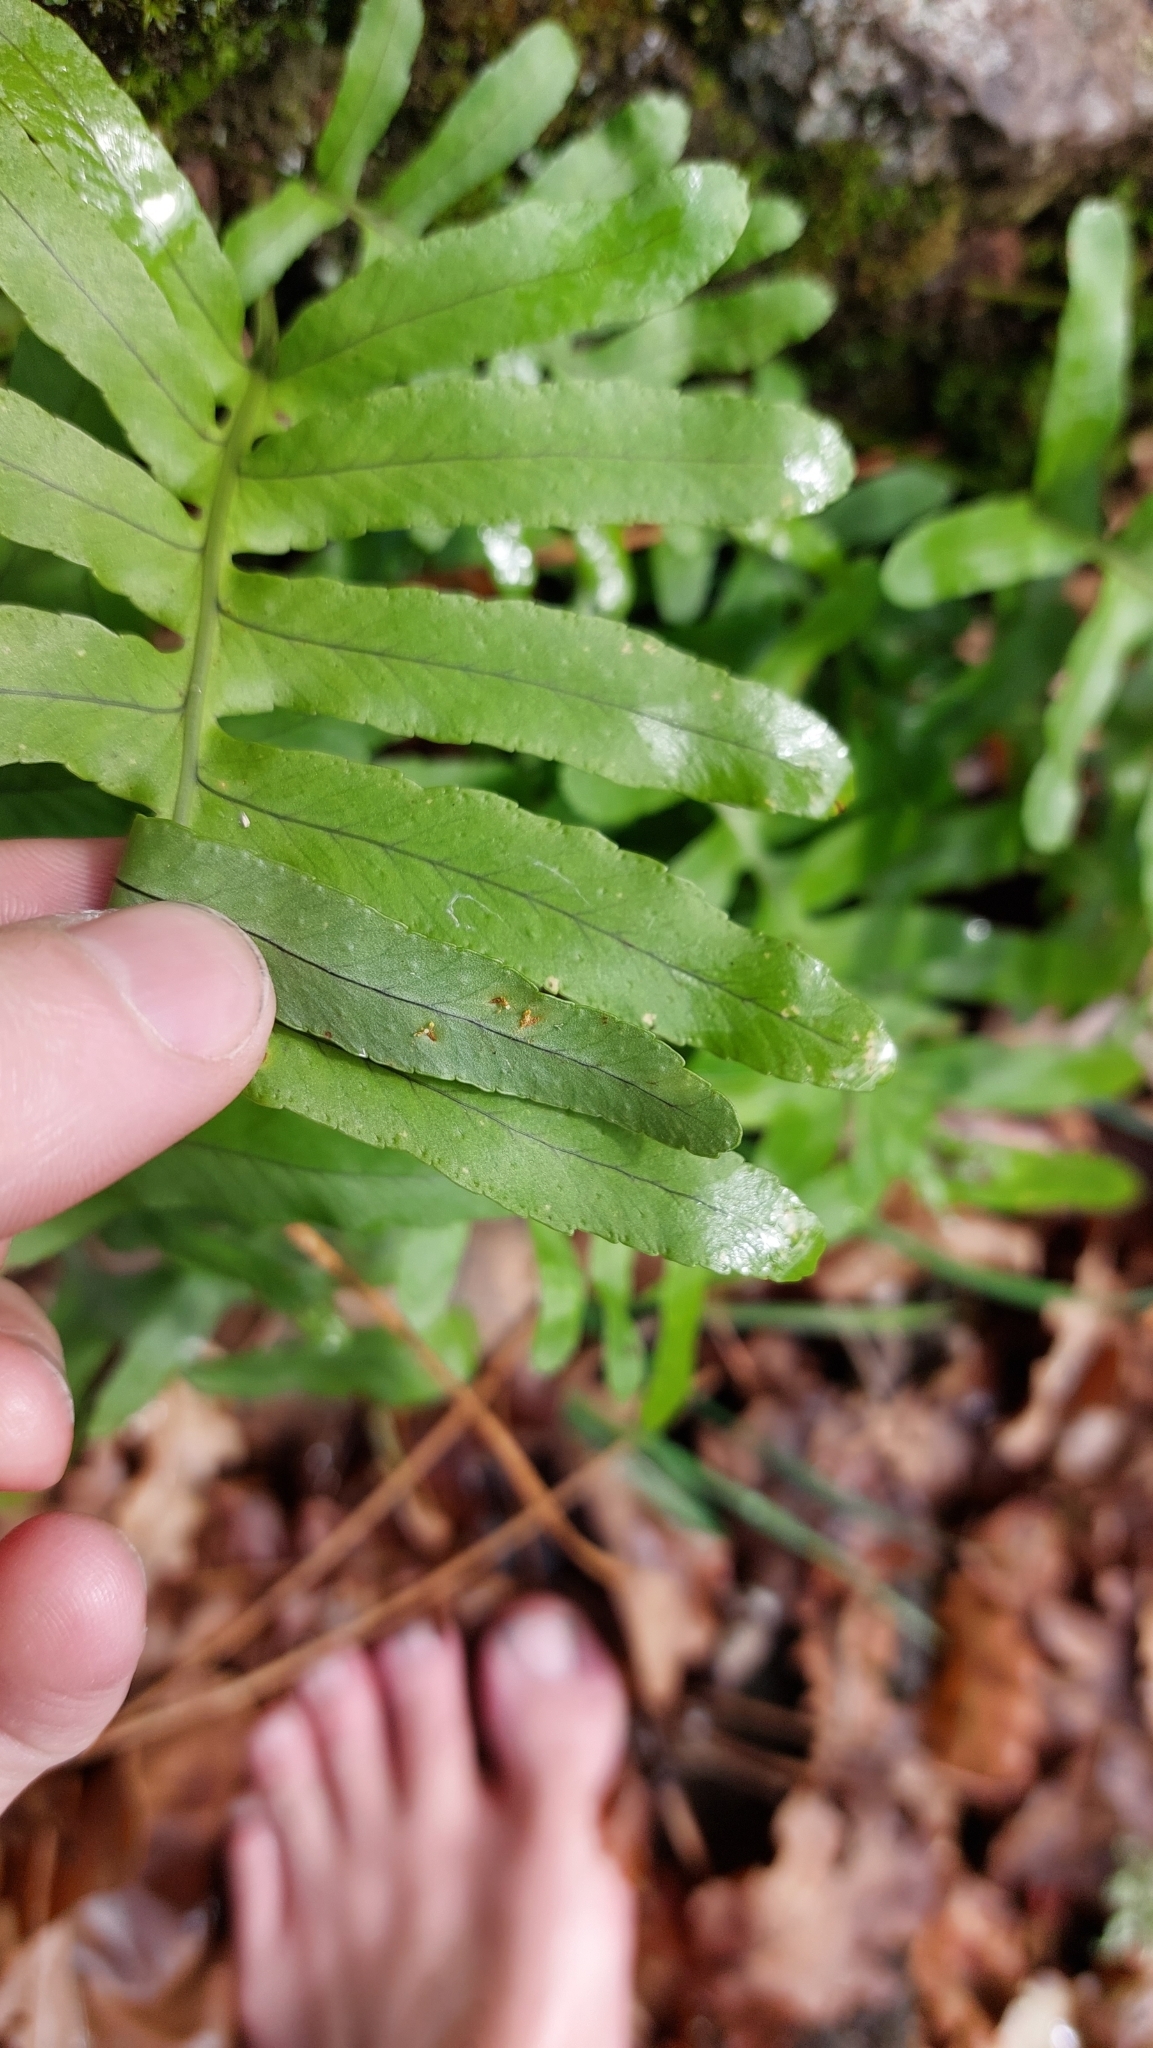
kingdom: Plantae
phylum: Tracheophyta
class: Polypodiopsida
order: Polypodiales
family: Polypodiaceae
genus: Polypodium
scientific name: Polypodium macaronesicum
